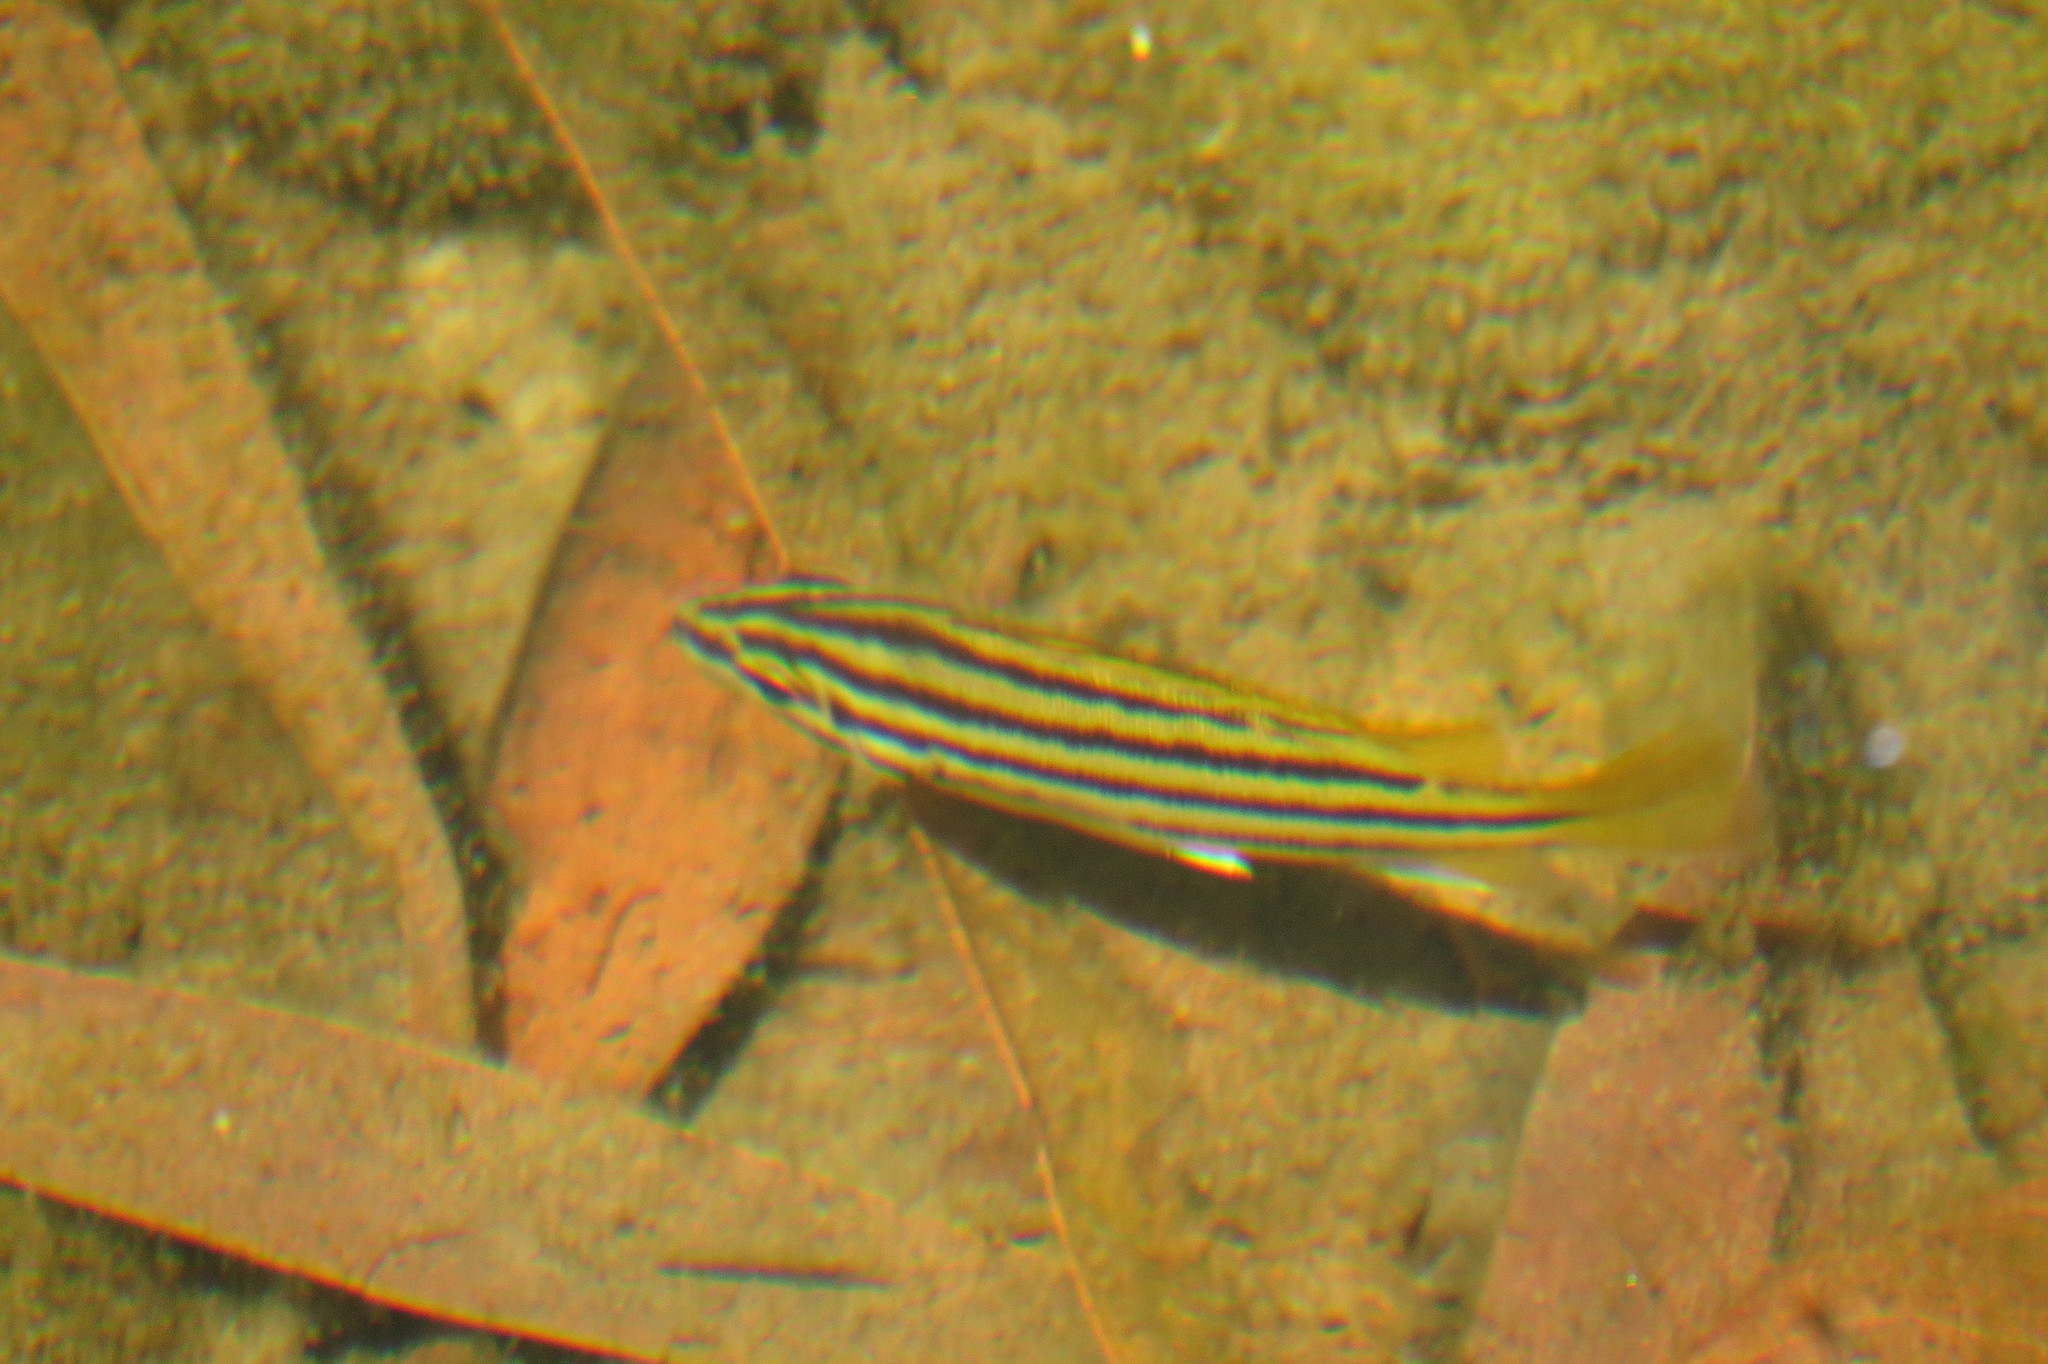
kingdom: Animalia
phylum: Chordata
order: Perciformes
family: Terapontidae
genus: Mesopristes
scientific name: Mesopristes argenteus
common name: Silver grunter
